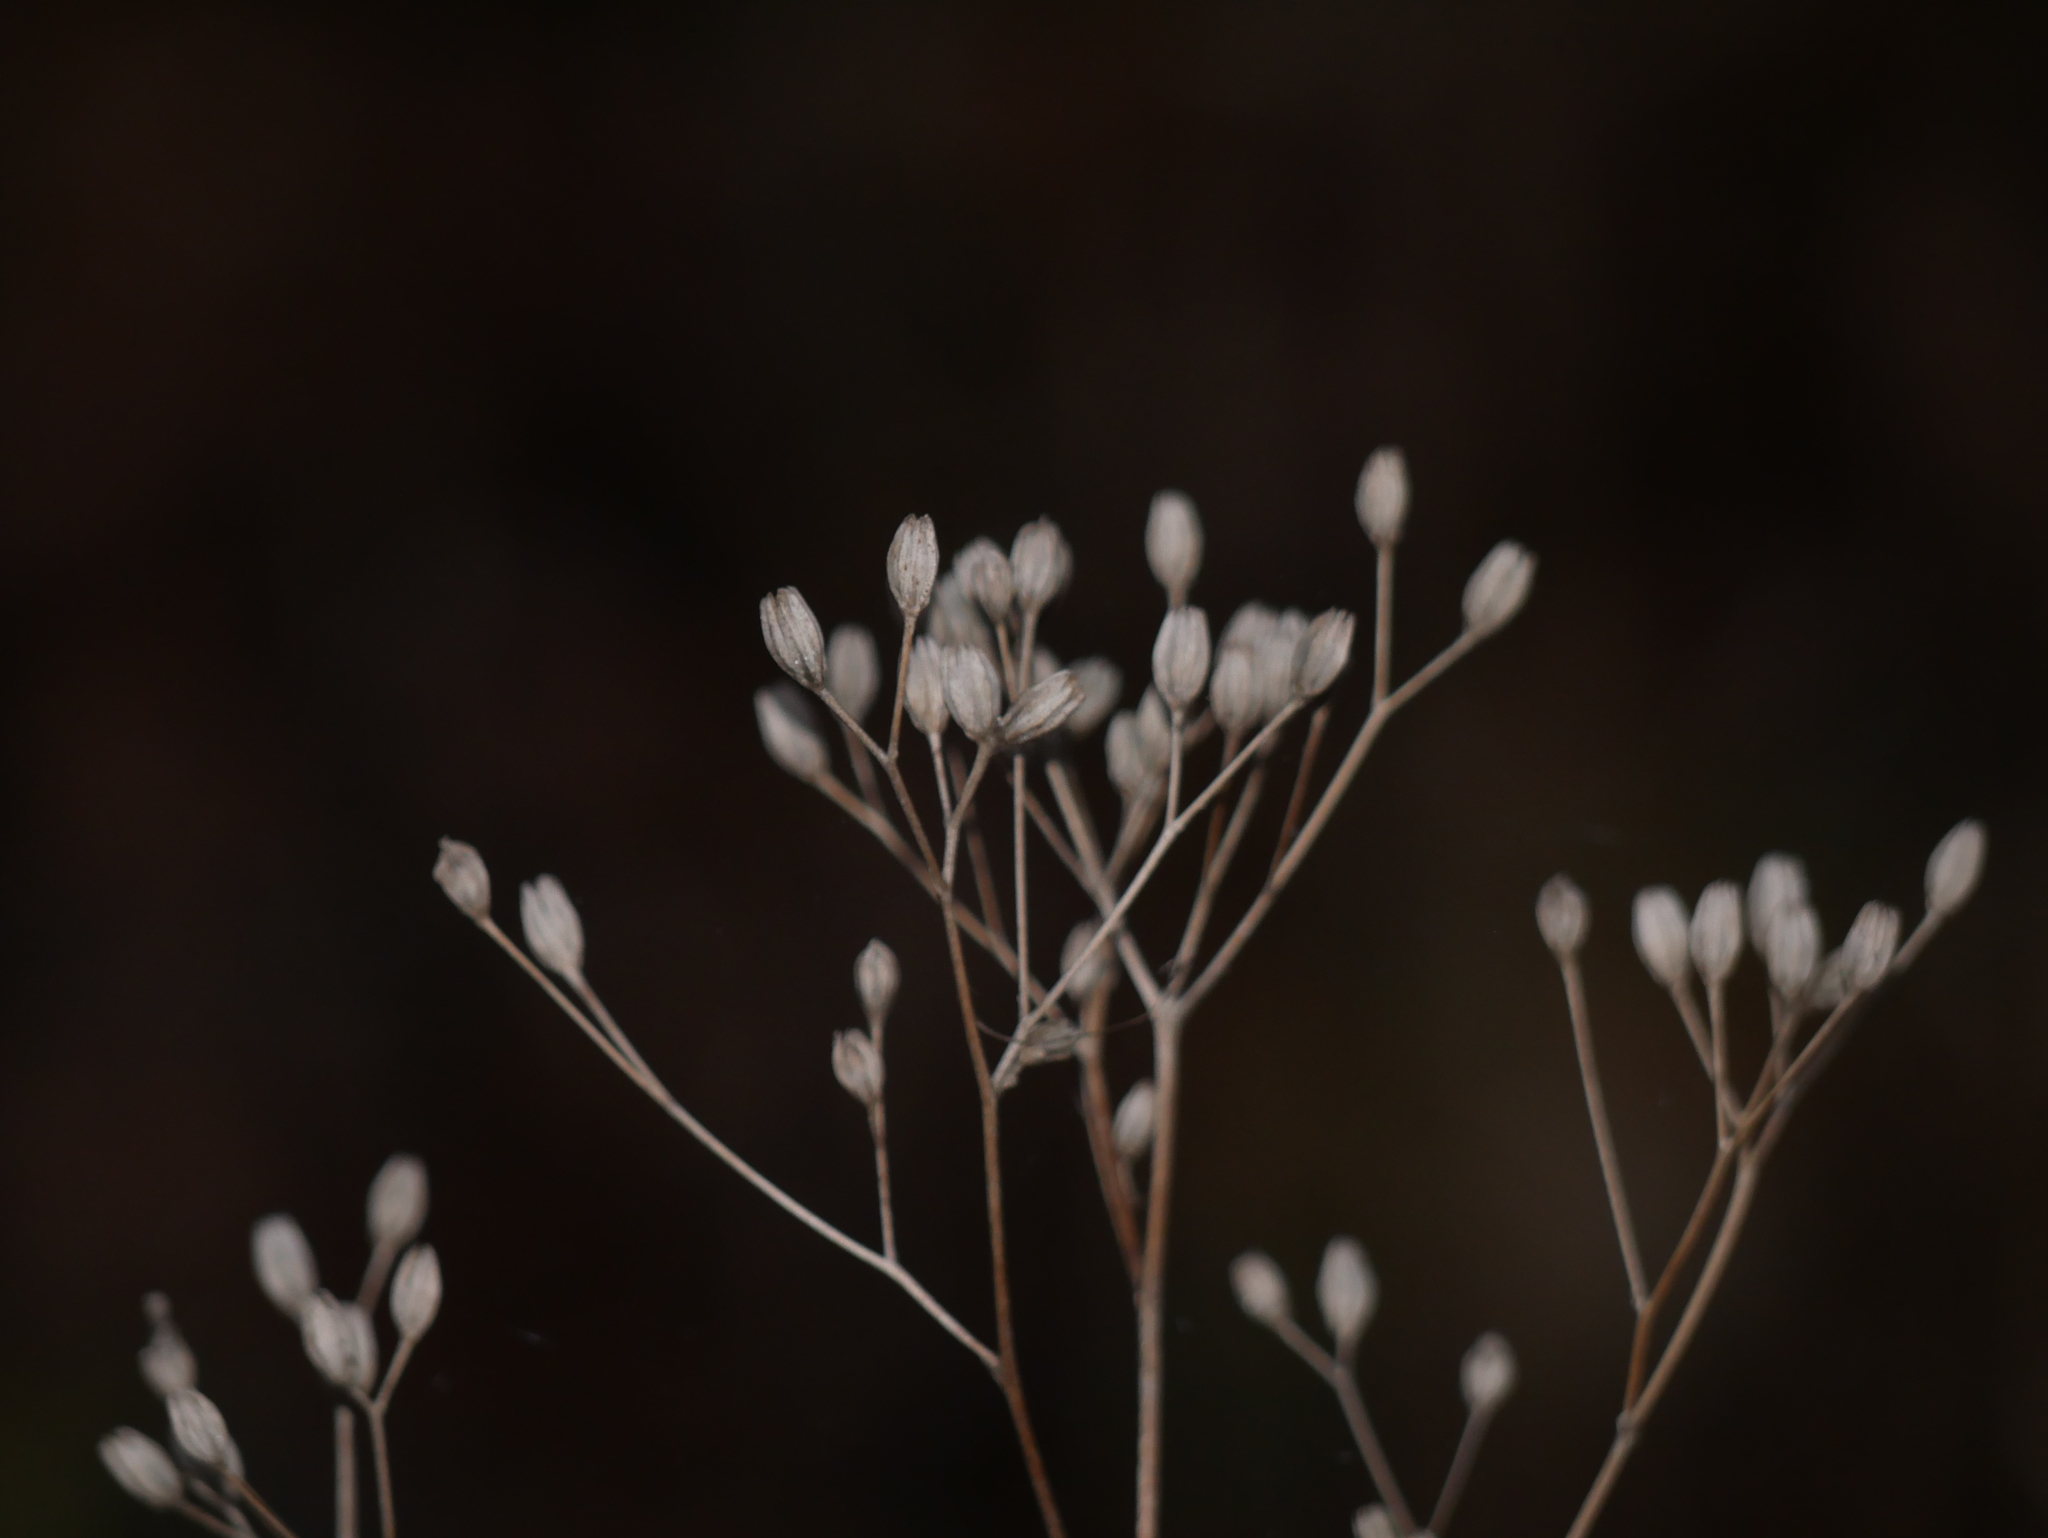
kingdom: Plantae
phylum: Tracheophyta
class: Magnoliopsida
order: Asterales
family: Asteraceae
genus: Lapsana
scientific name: Lapsana communis
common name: Nipplewort
